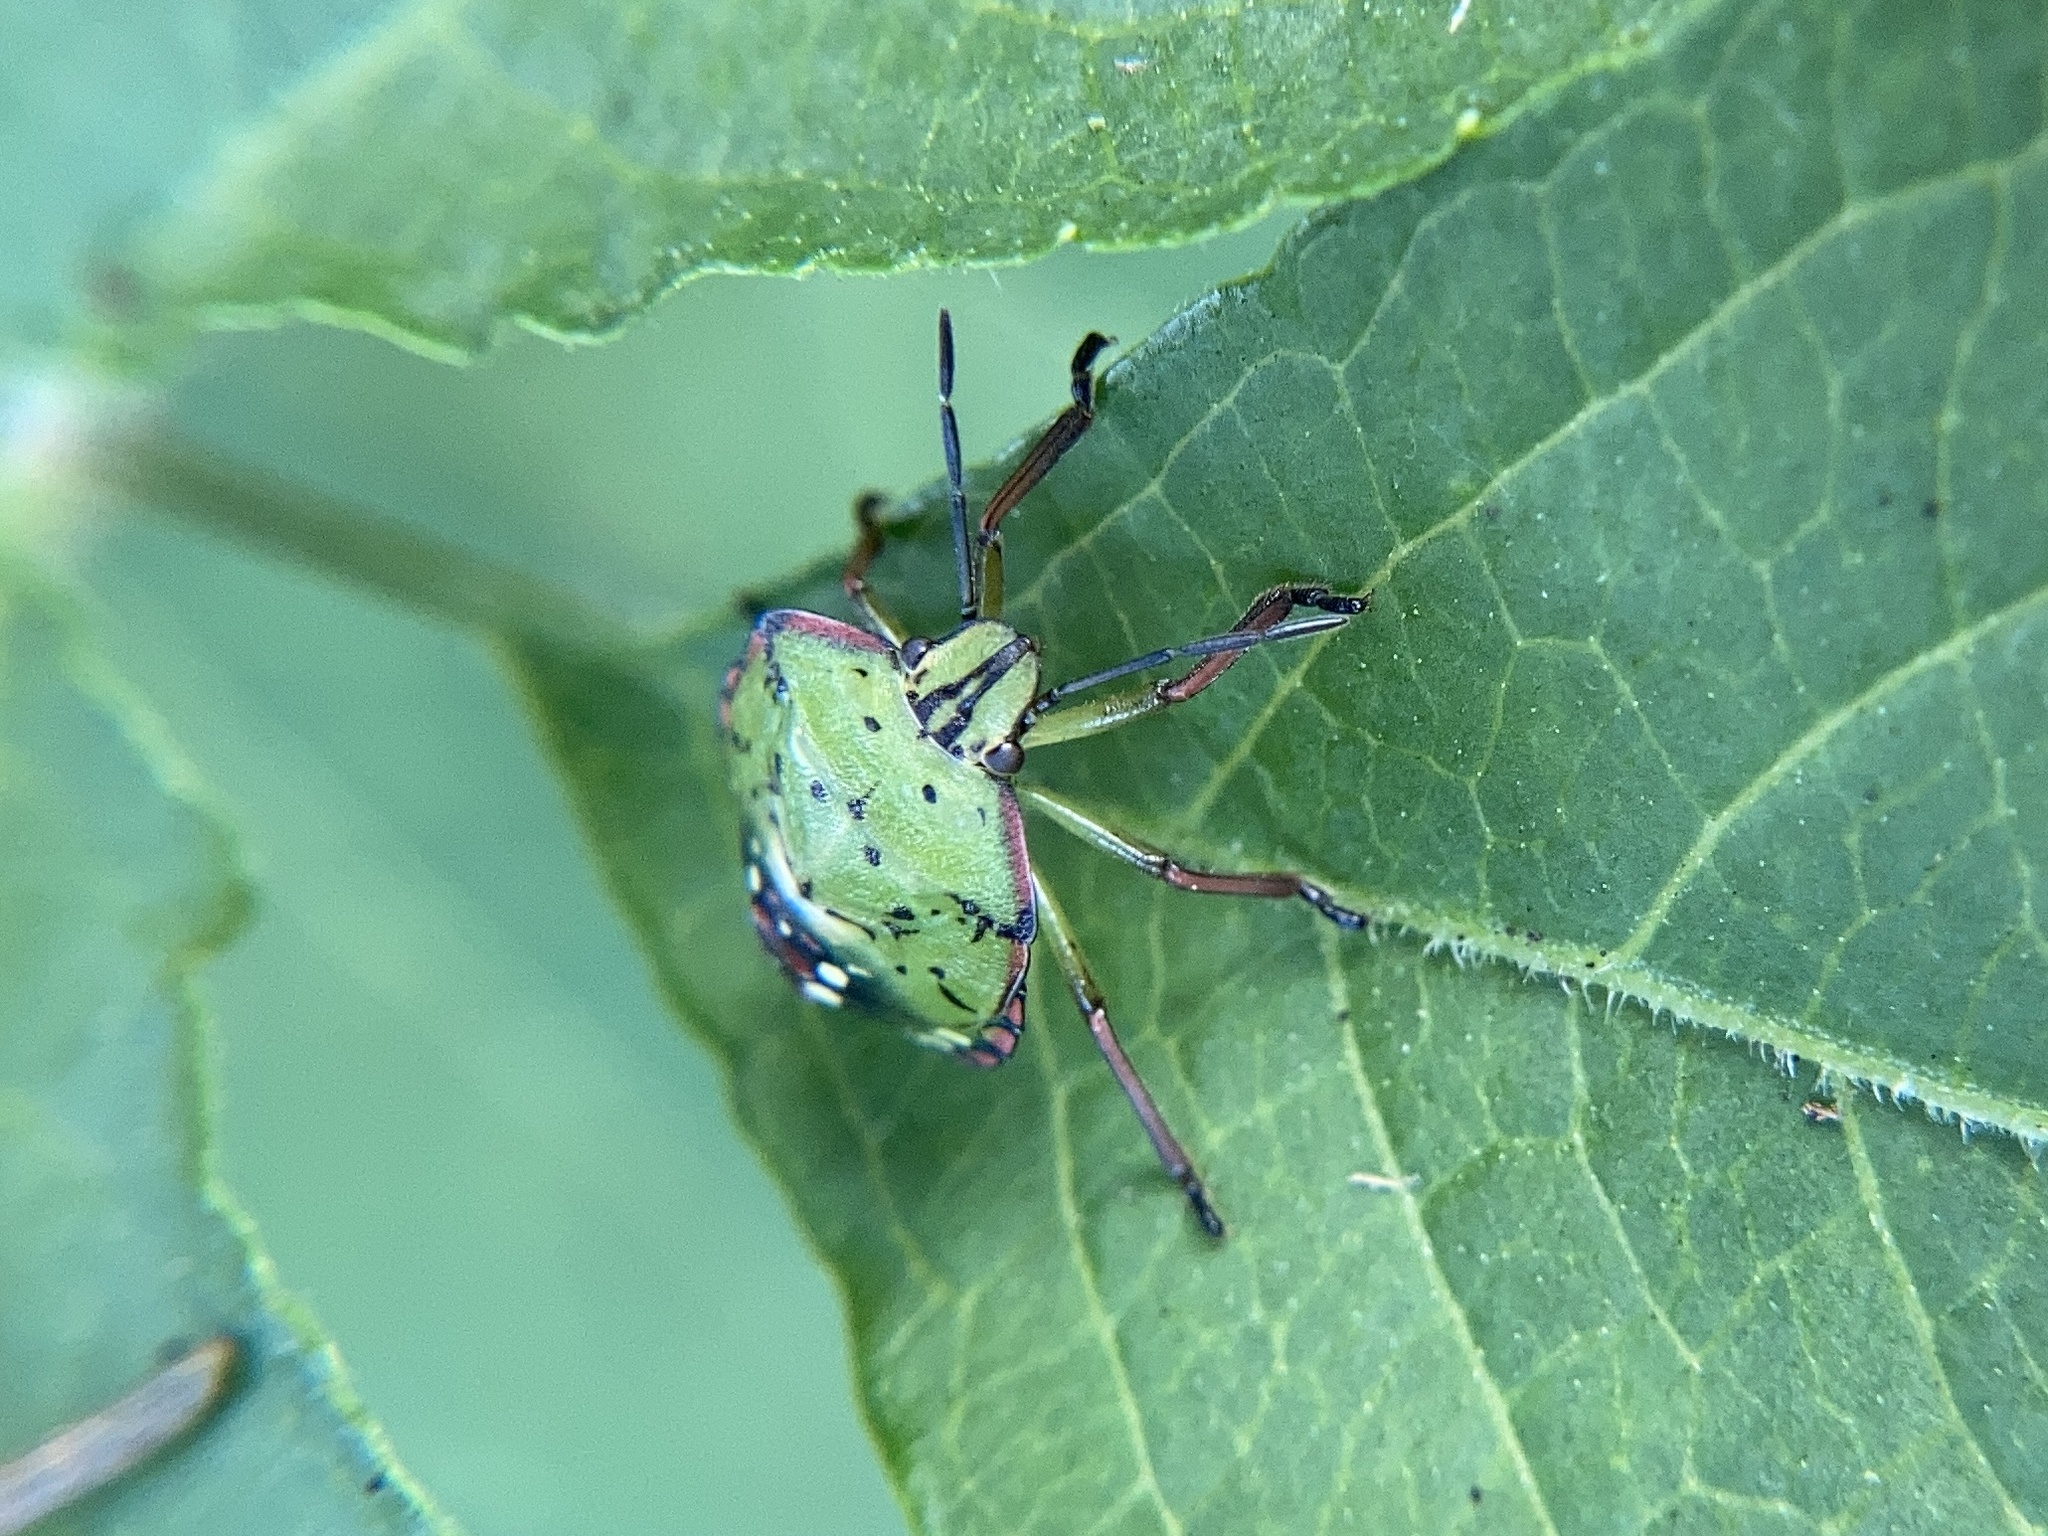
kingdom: Animalia
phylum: Arthropoda
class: Insecta
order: Hemiptera
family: Pentatomidae
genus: Nezara
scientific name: Nezara viridula
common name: Southern green stink bug
